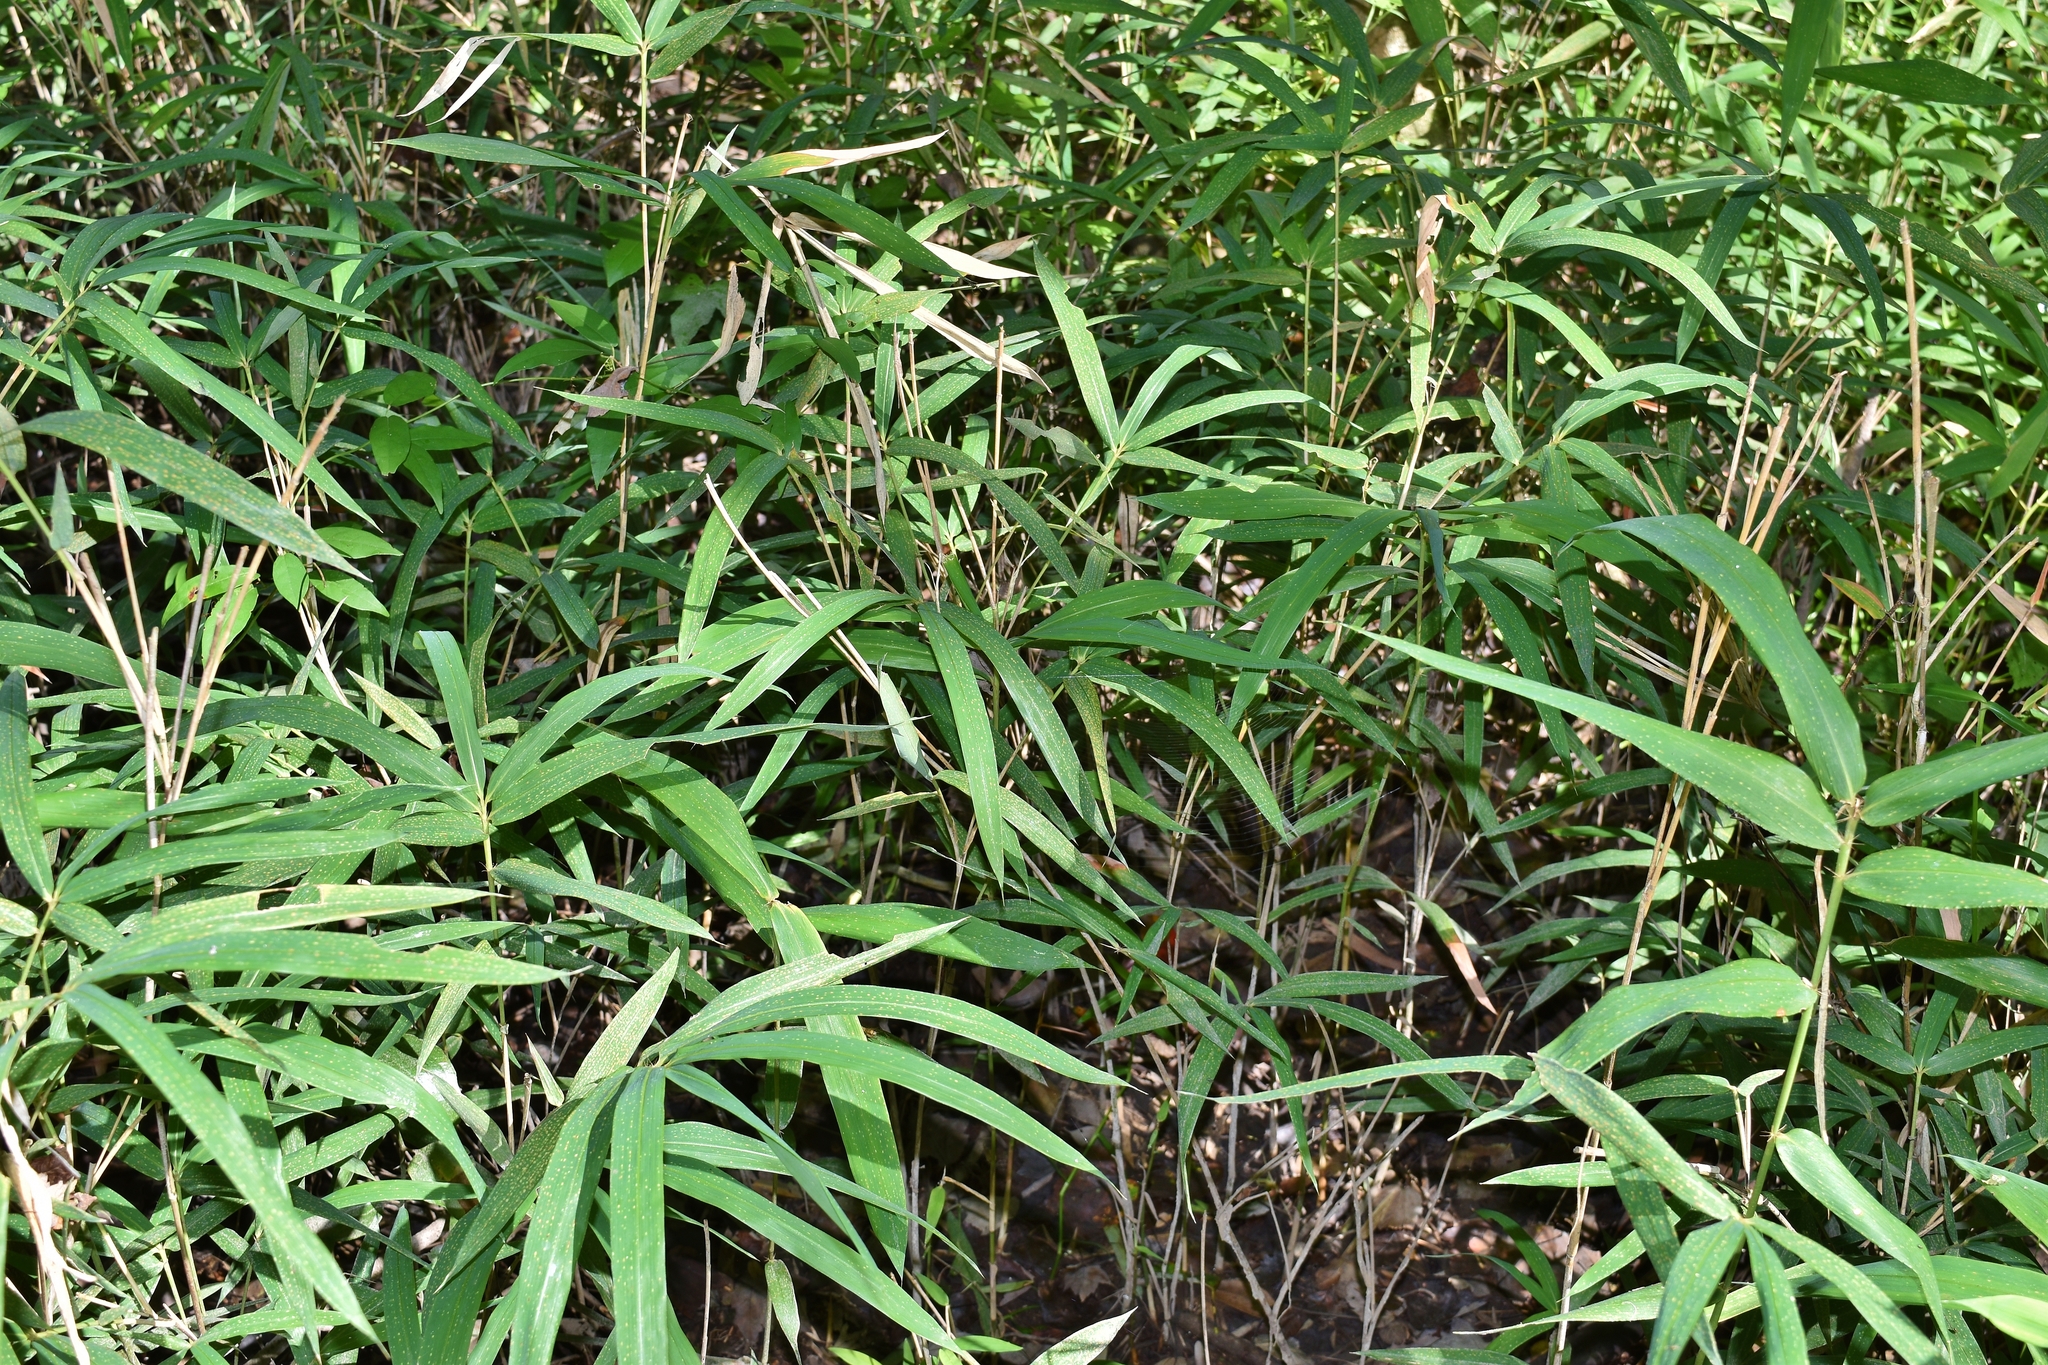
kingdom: Plantae
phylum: Tracheophyta
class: Liliopsida
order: Poales
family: Poaceae
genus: Arundinaria
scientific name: Arundinaria tecta
